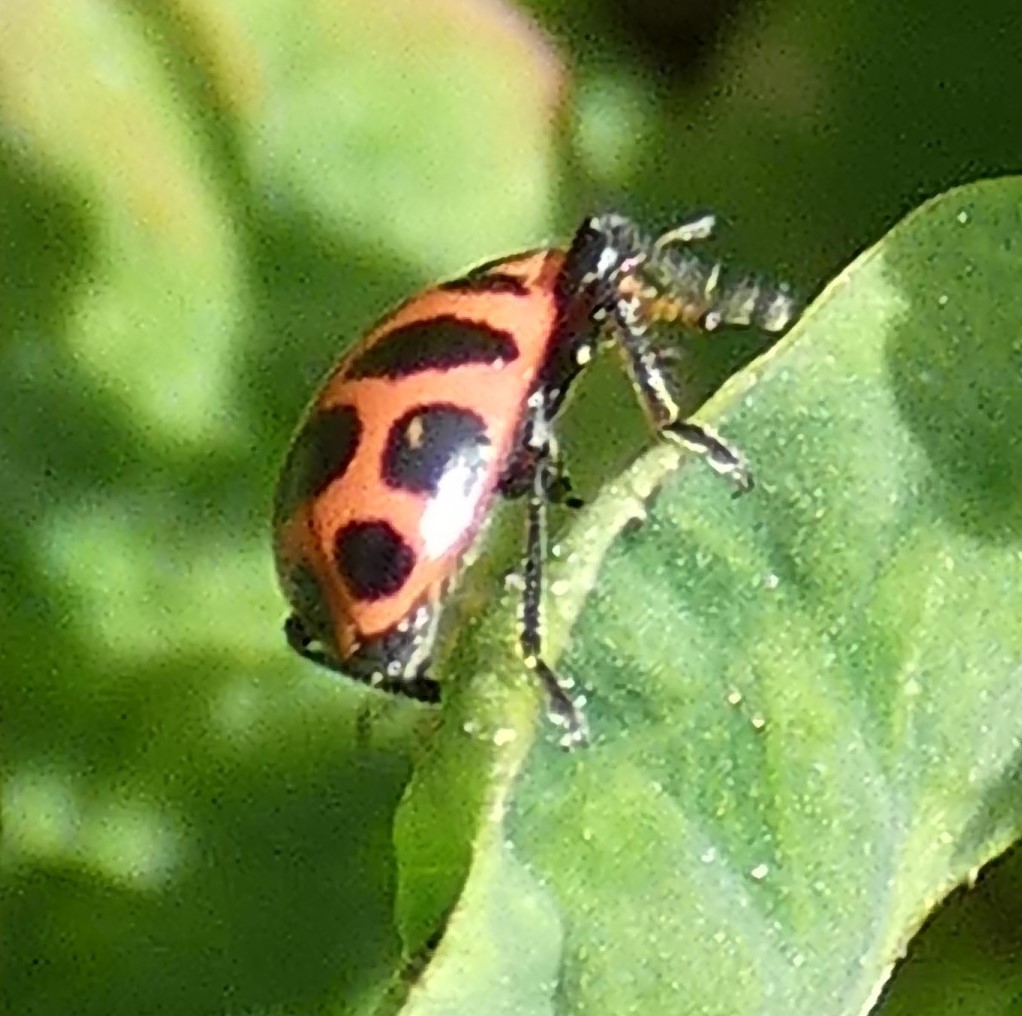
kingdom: Animalia
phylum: Arthropoda
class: Insecta
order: Coleoptera
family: Coccinellidae
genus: Coleomegilla
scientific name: Coleomegilla maculata
